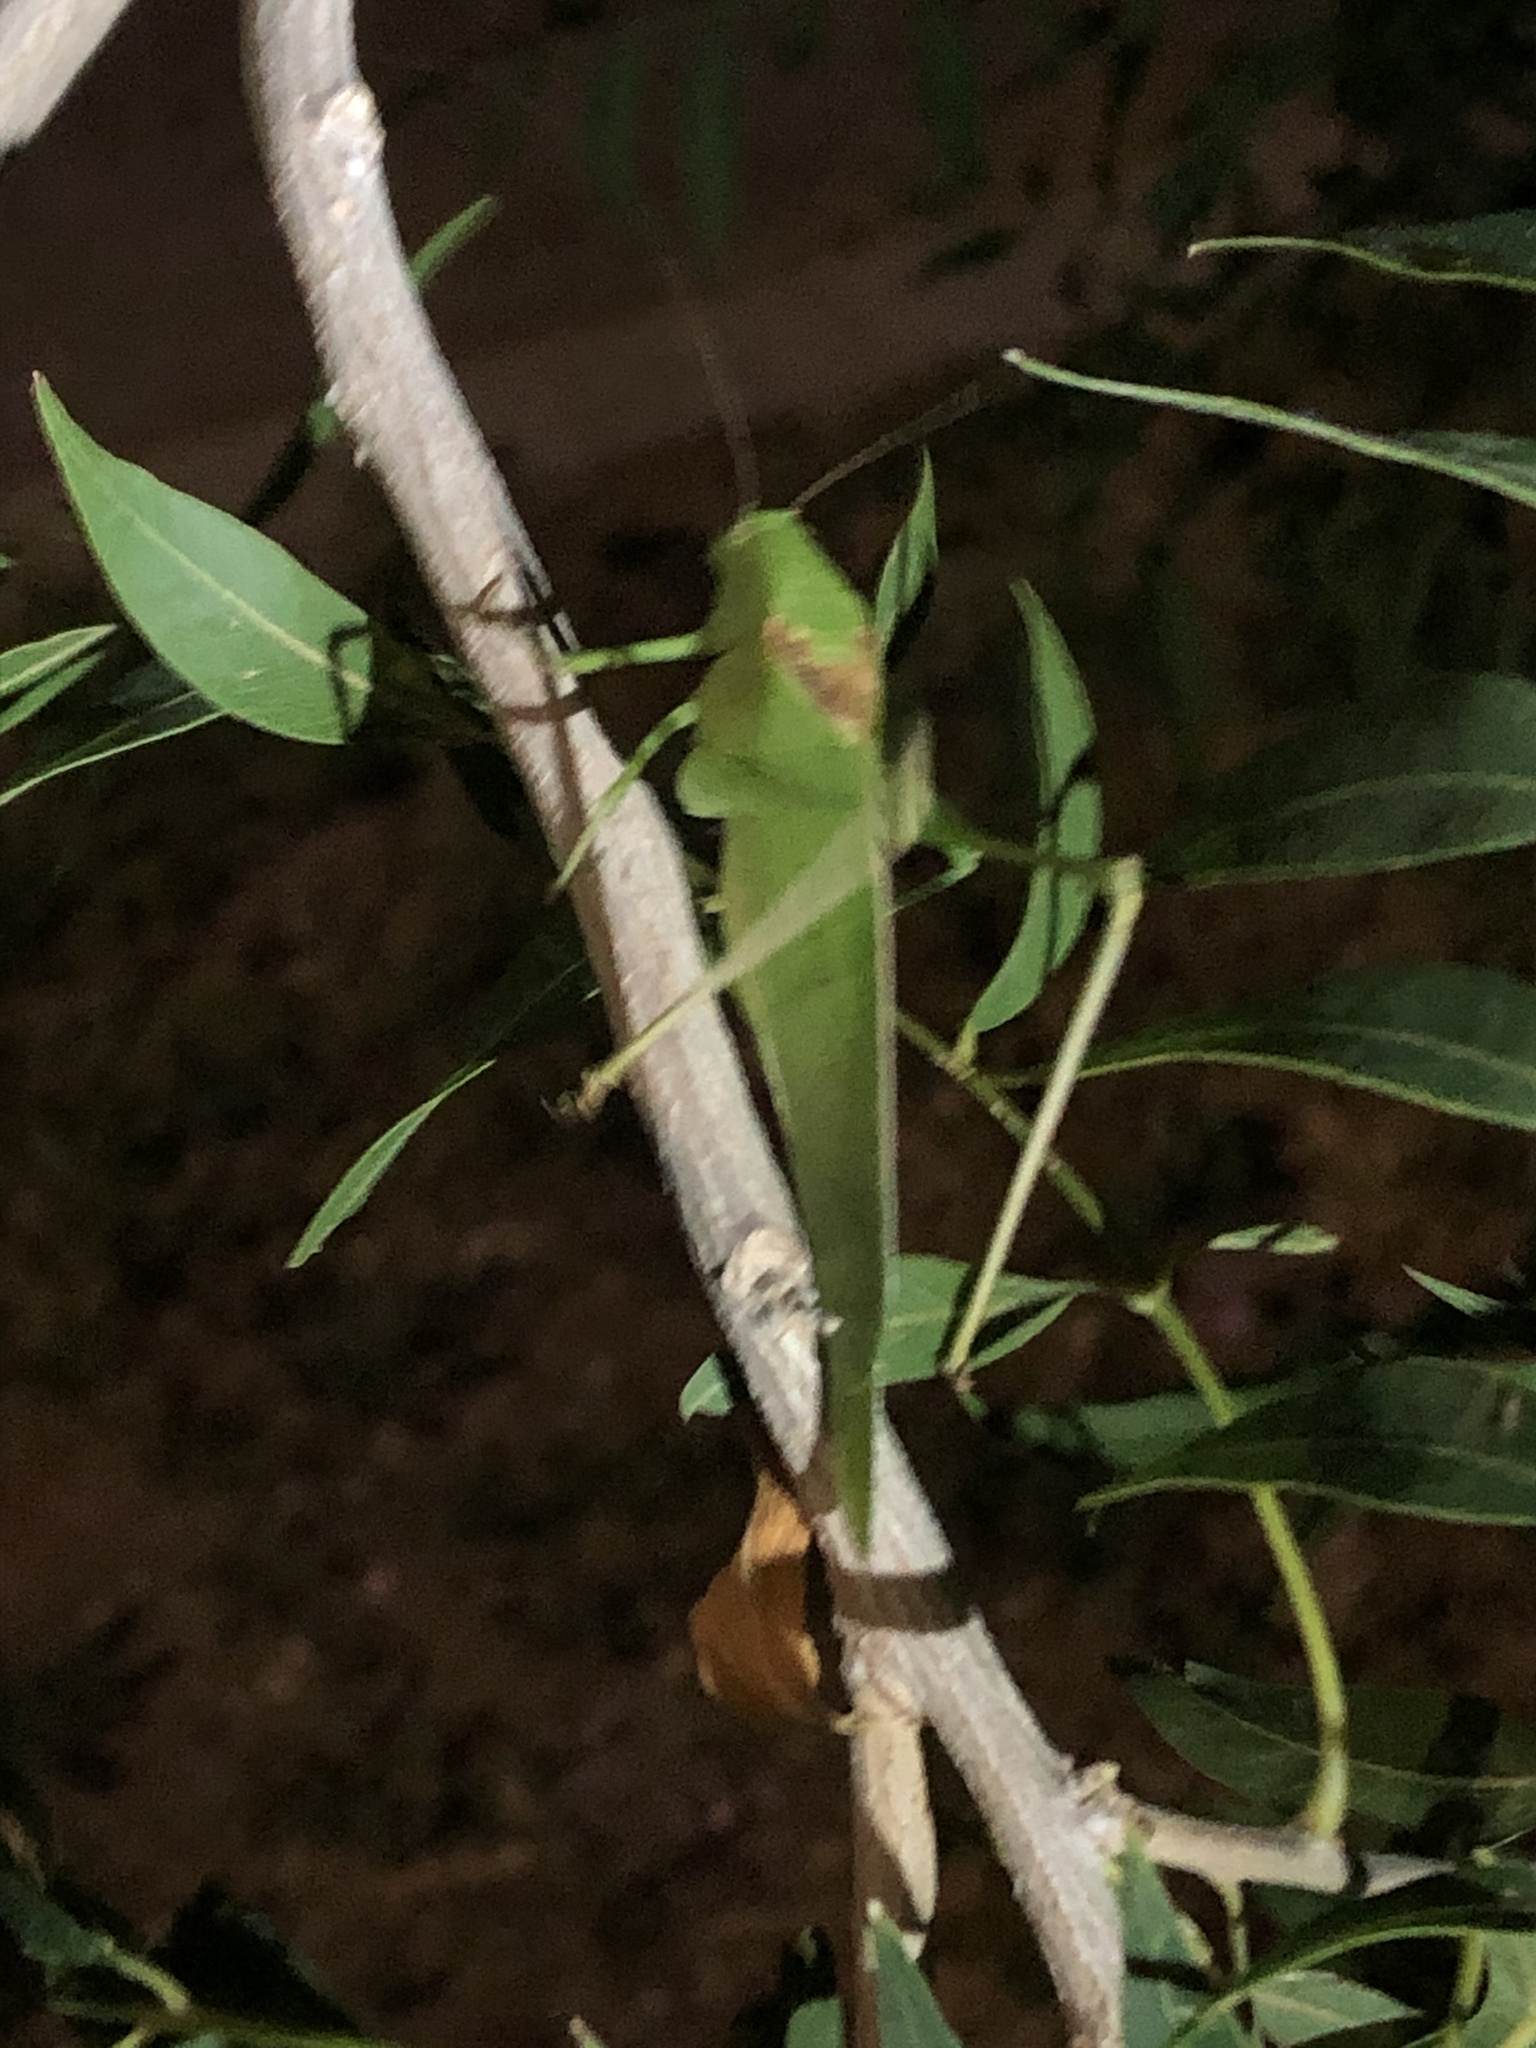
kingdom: Animalia
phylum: Arthropoda
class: Insecta
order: Orthoptera
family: Tettigoniidae
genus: Amblycorypha
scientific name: Amblycorypha huasteca
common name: Texas false katydid
